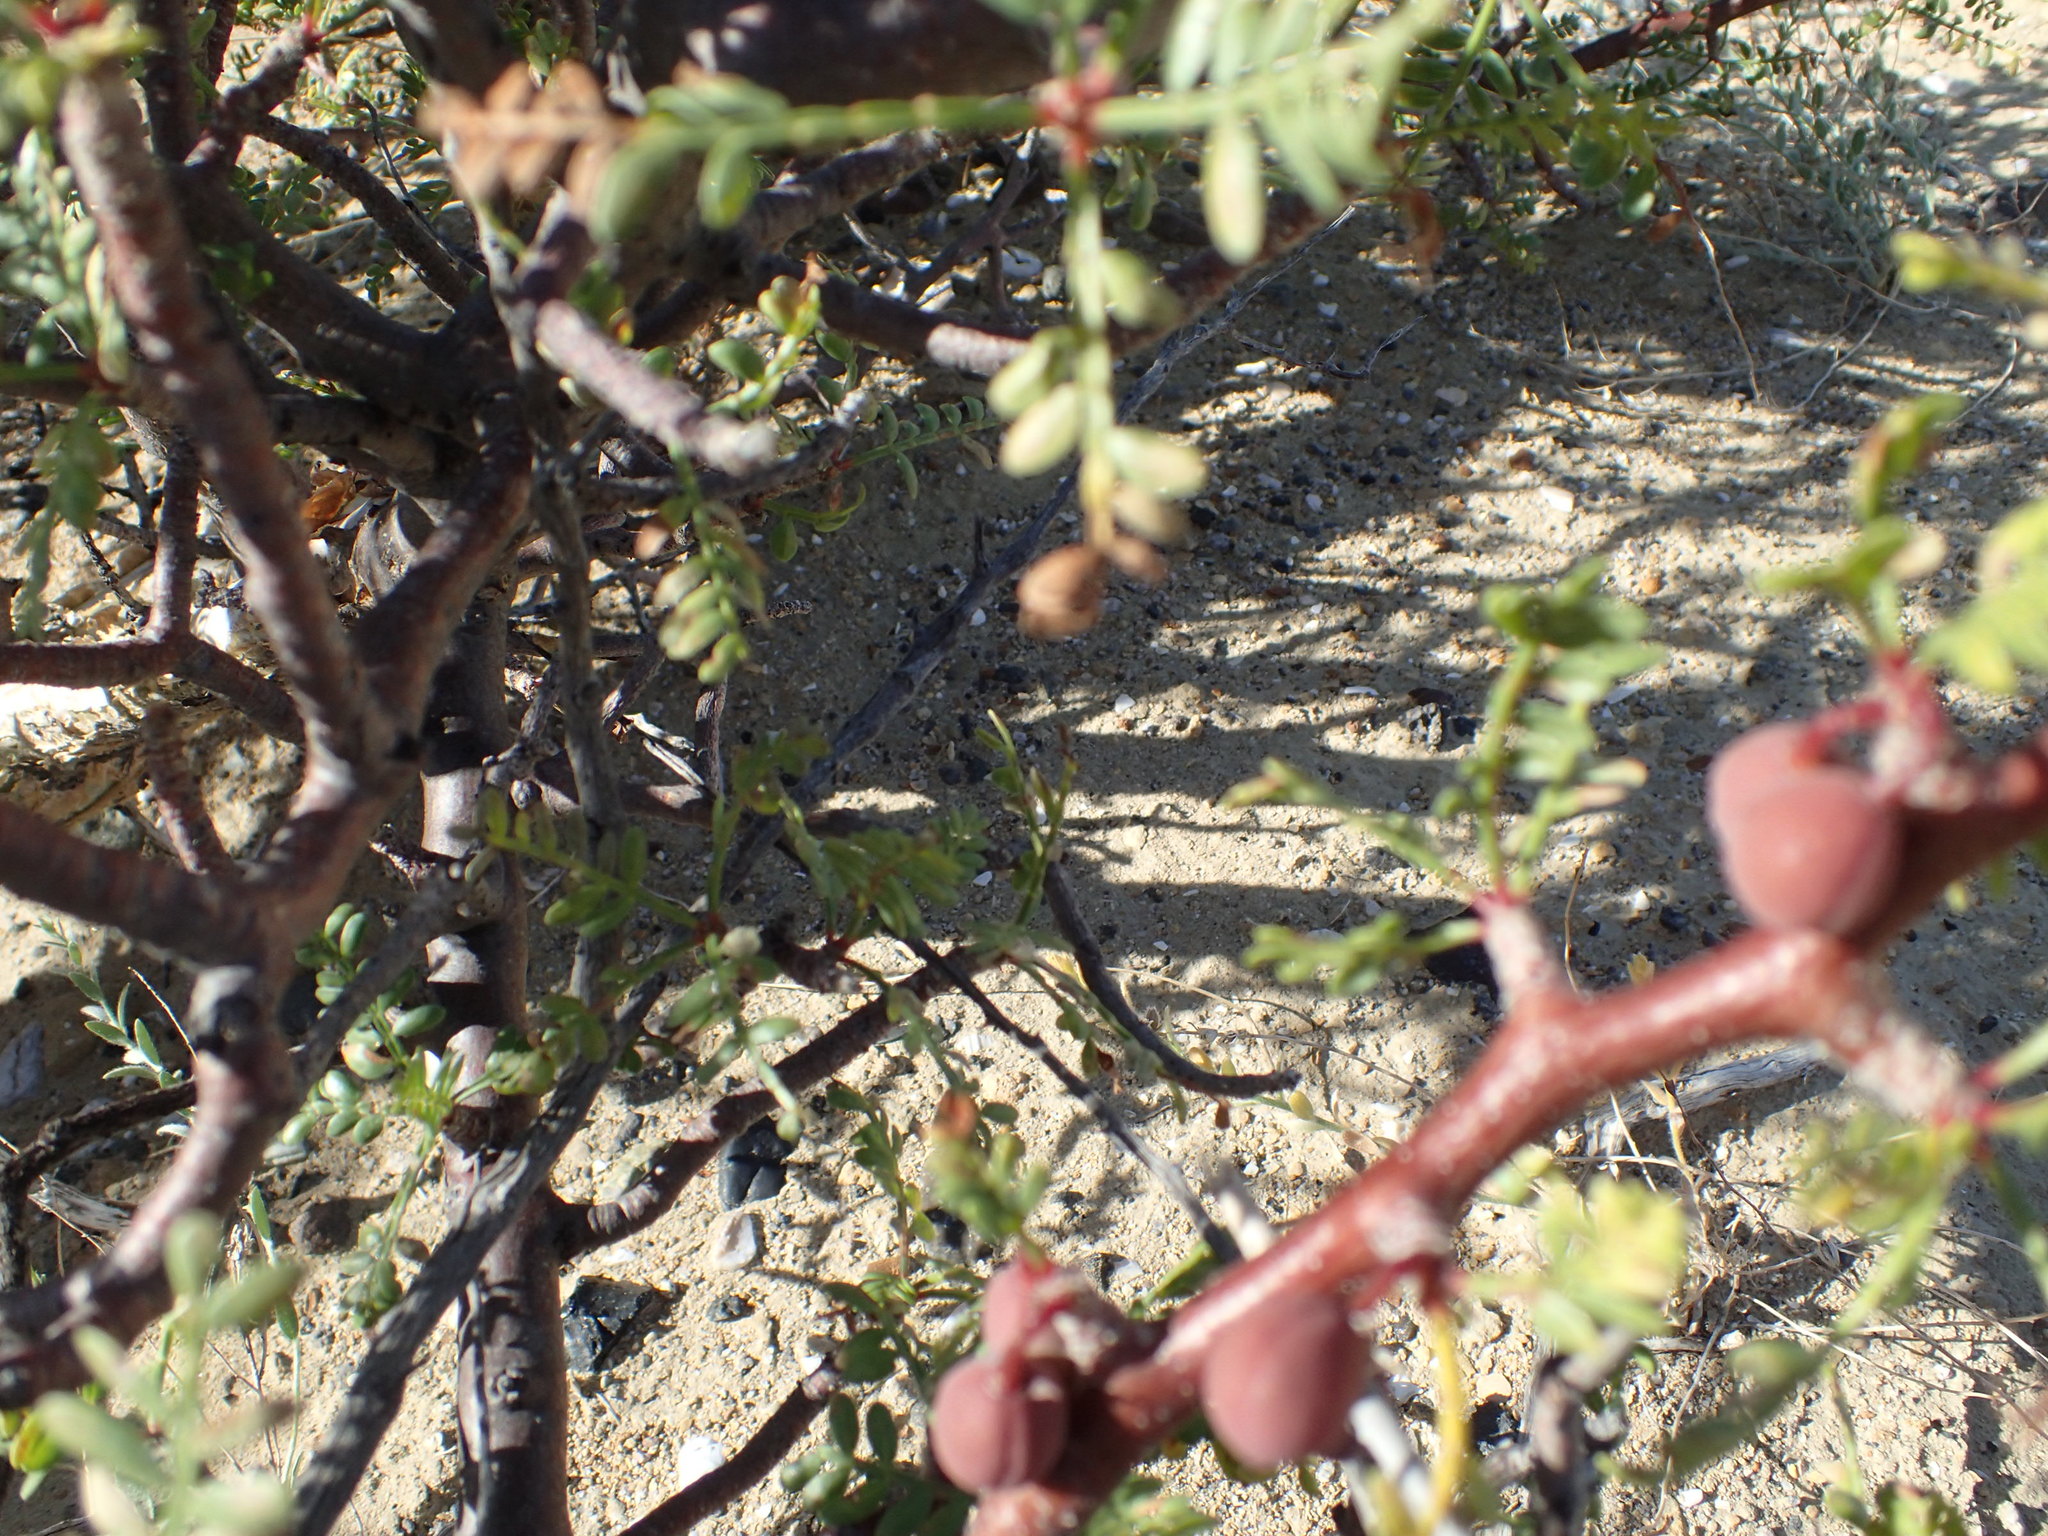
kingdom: Plantae
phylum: Tracheophyta
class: Magnoliopsida
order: Sapindales
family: Burseraceae
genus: Bursera
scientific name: Bursera microphylla
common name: Elephant tree
